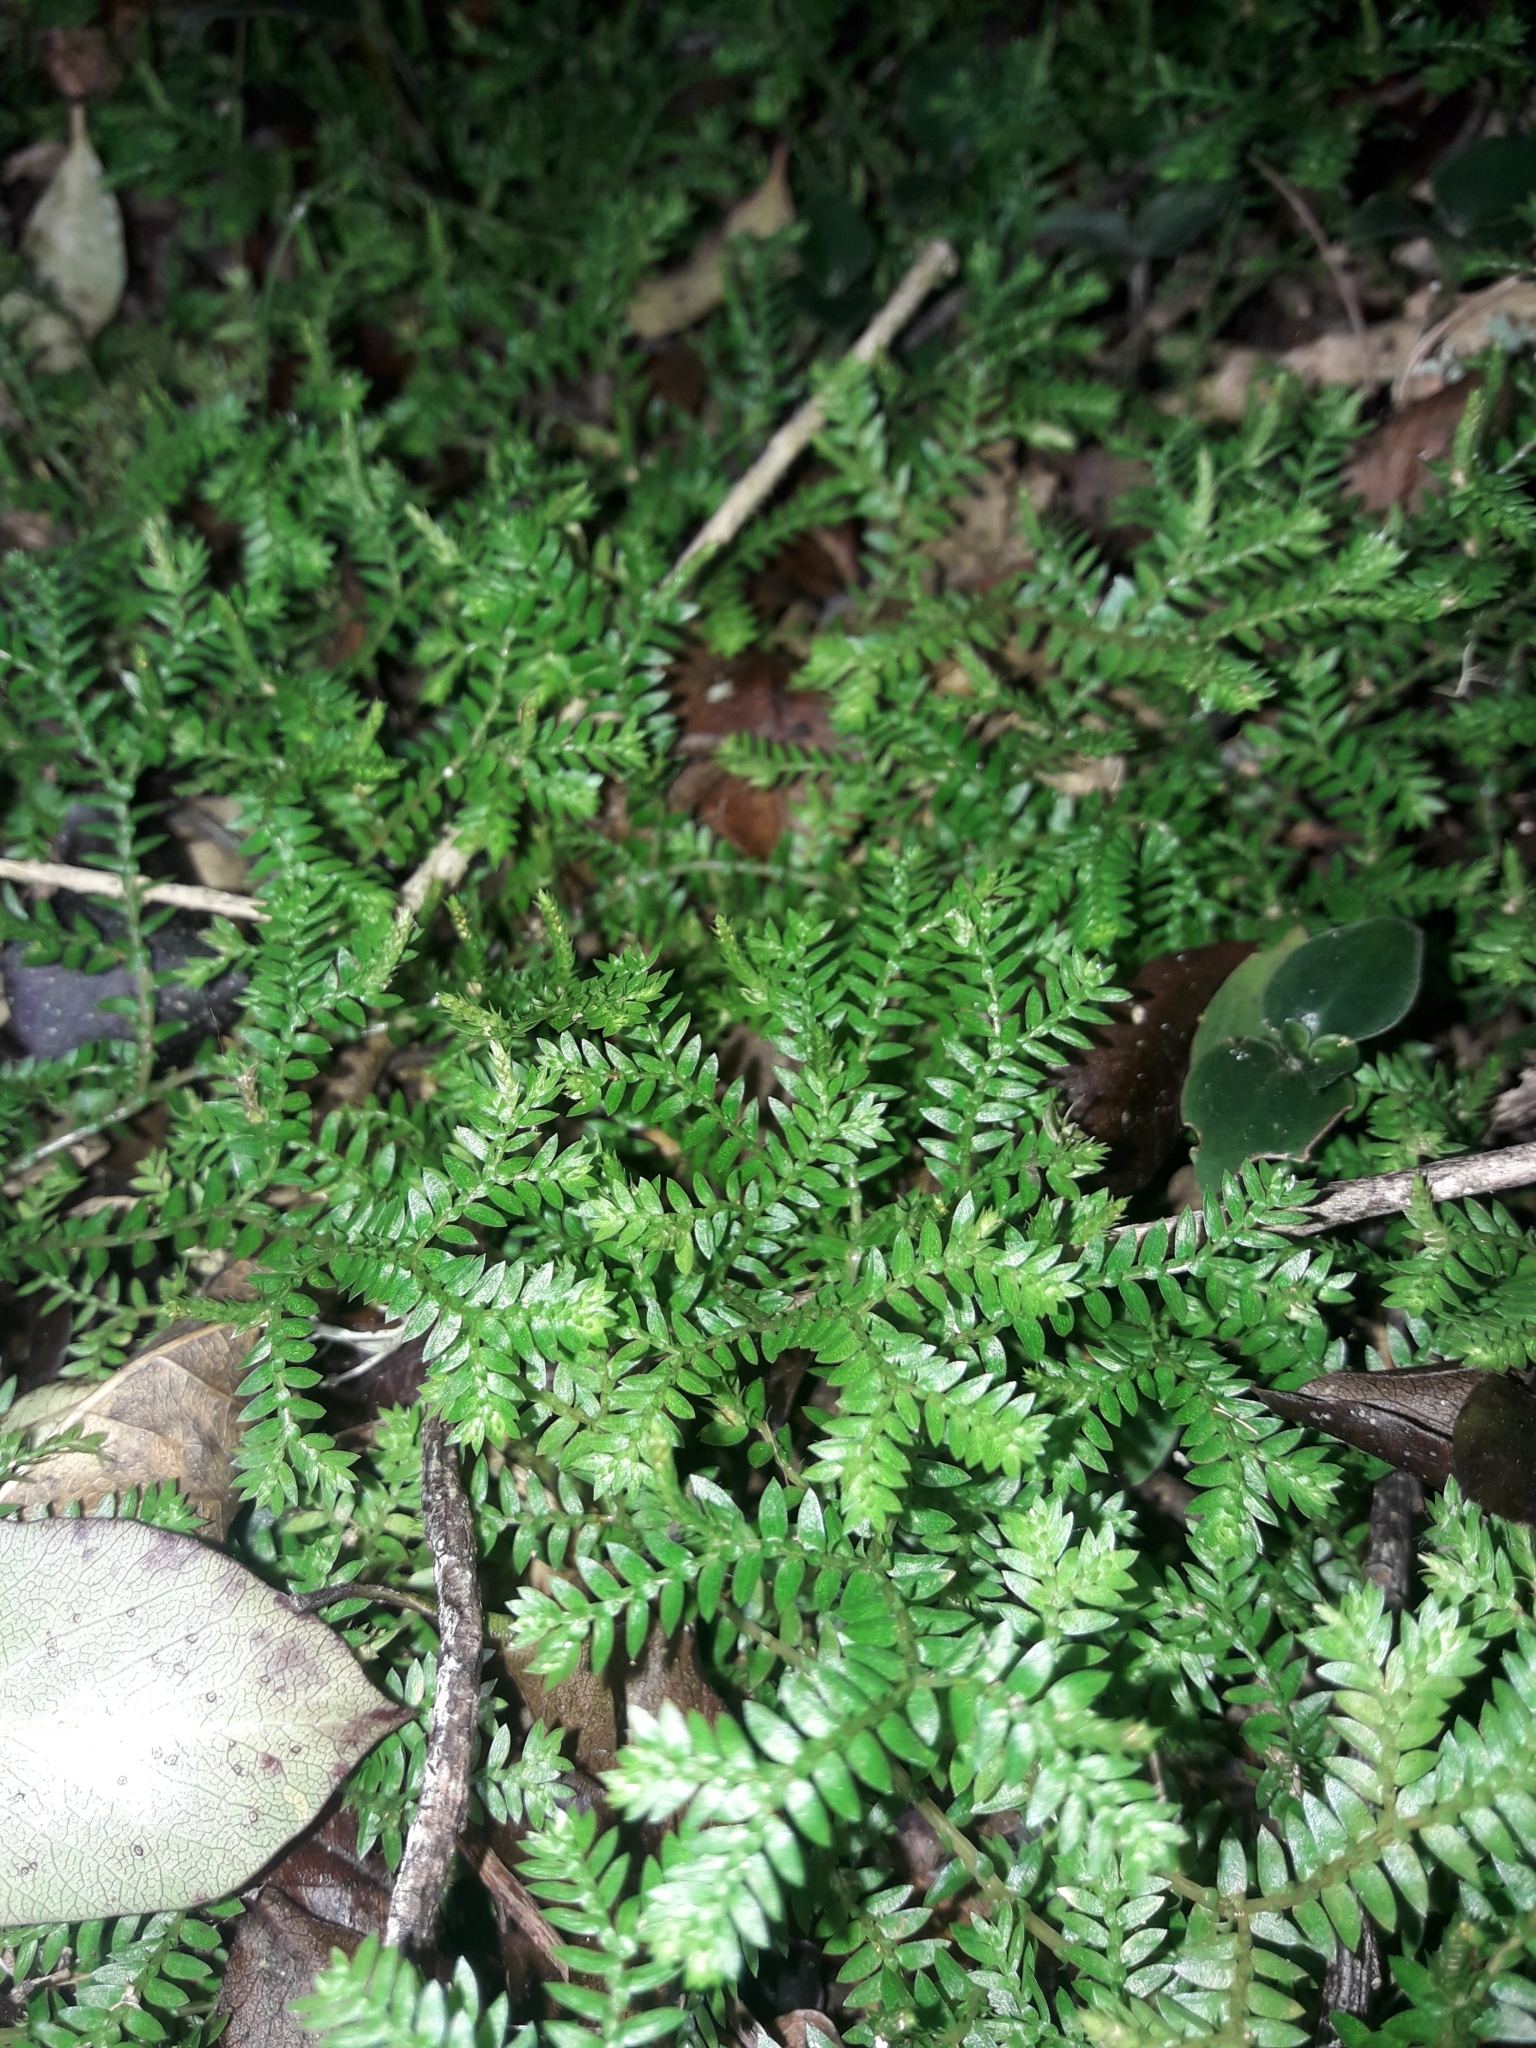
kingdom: Plantae
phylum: Tracheophyta
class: Lycopodiopsida
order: Selaginellales
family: Selaginellaceae
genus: Selaginella
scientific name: Selaginella kraussiana
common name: Krauss' spikemoss
